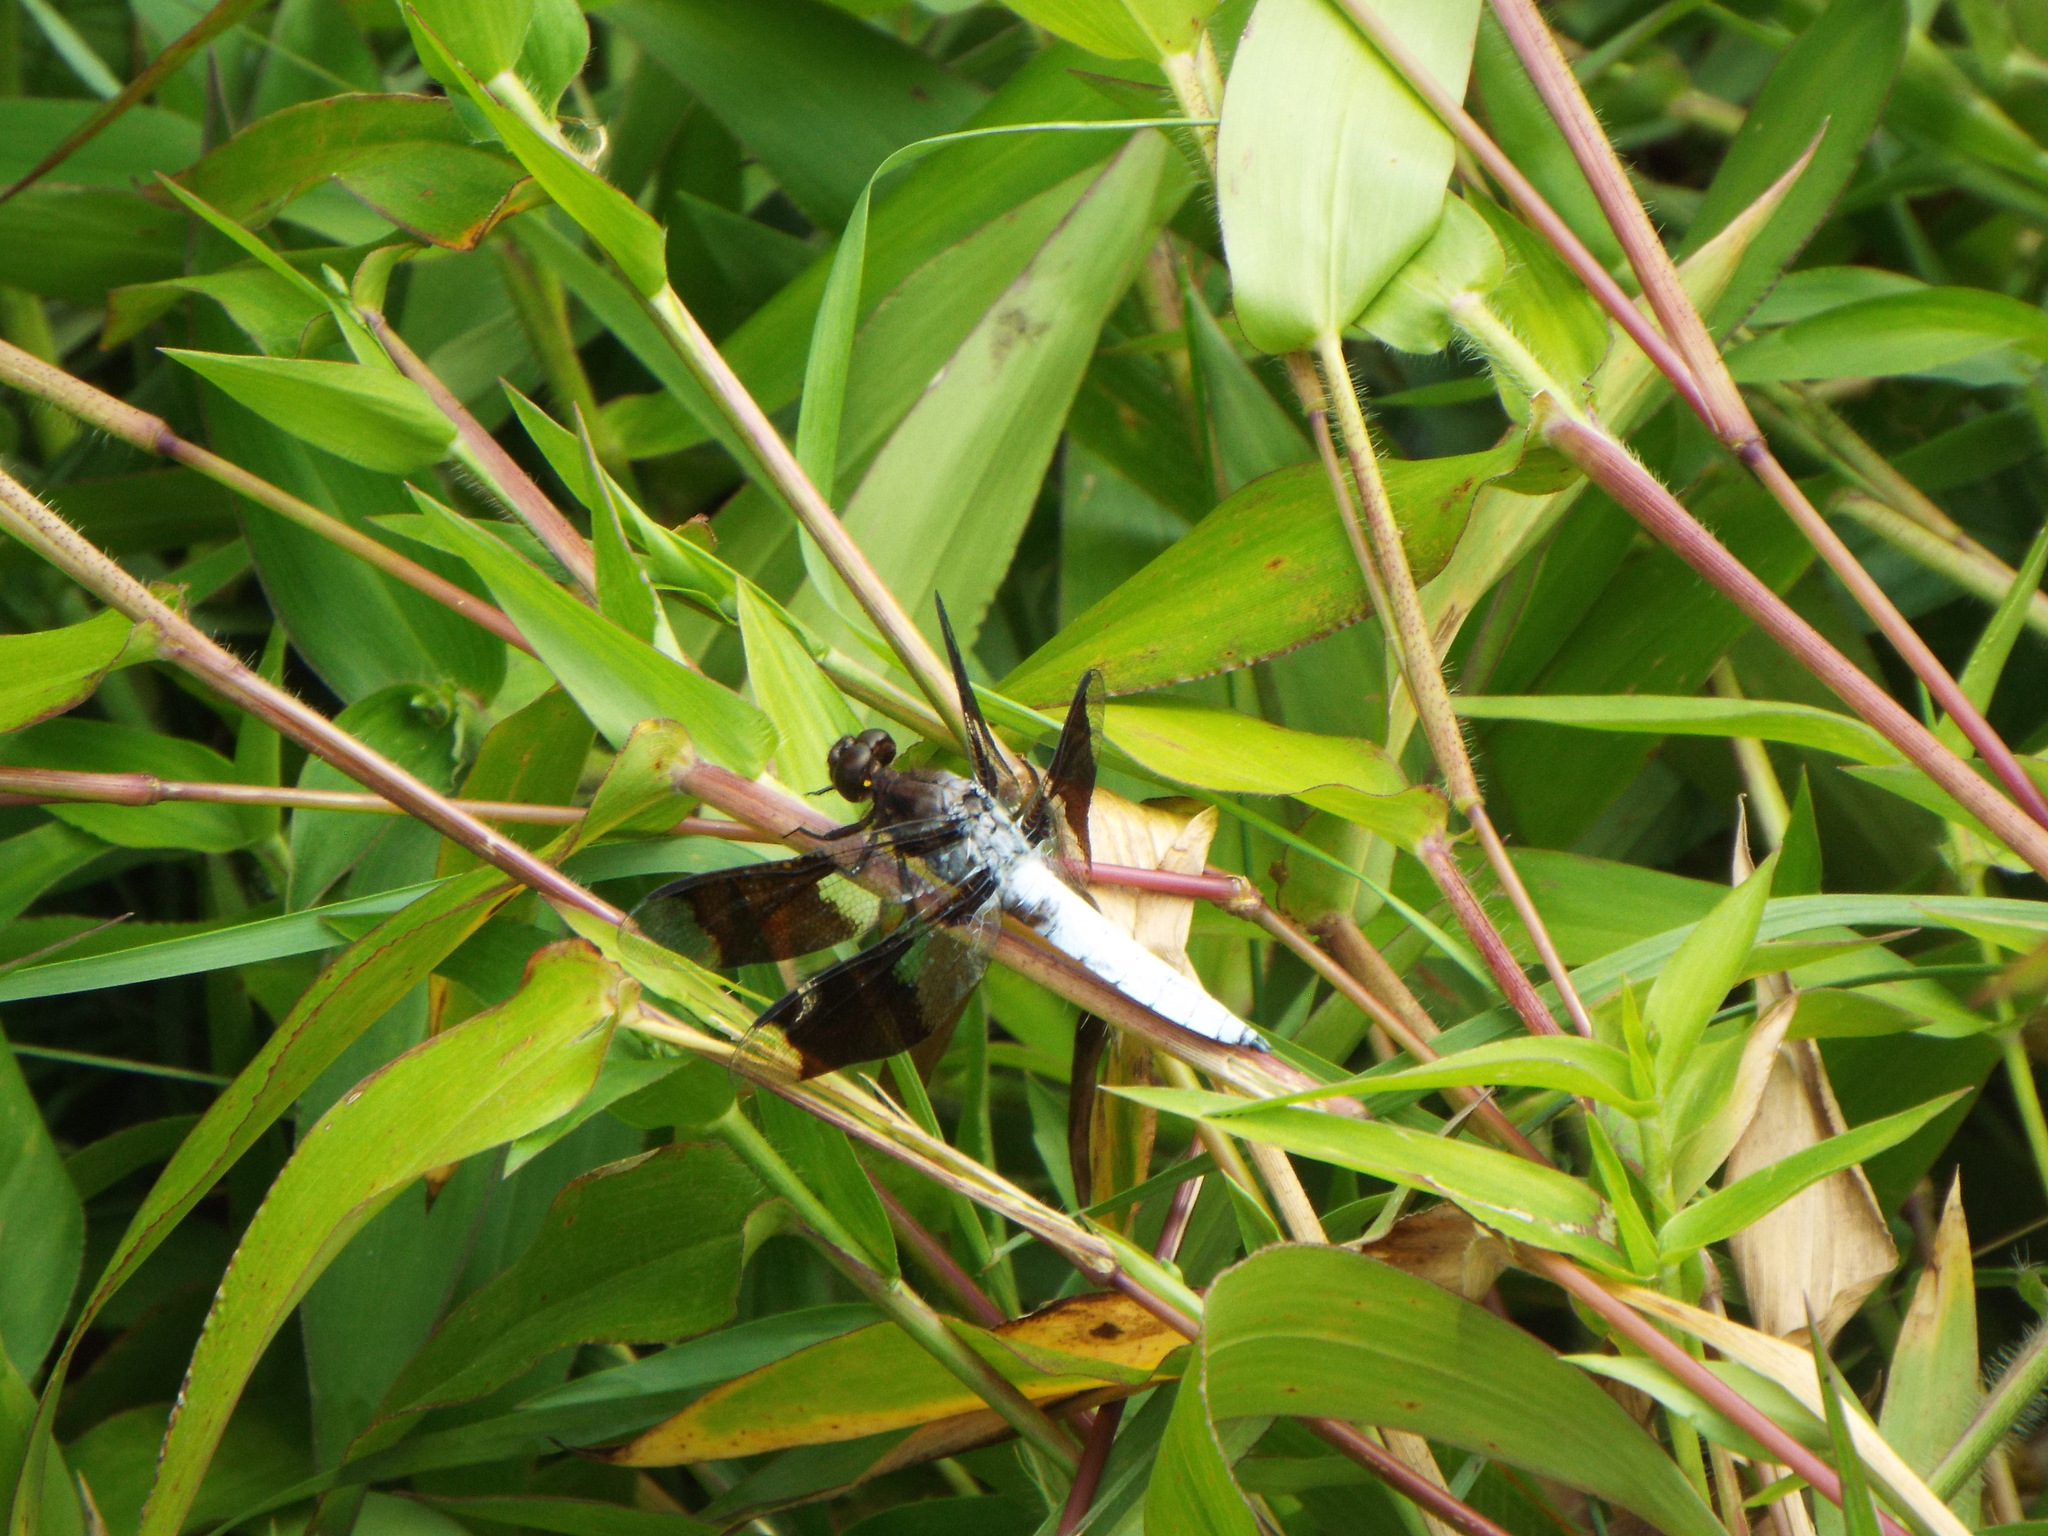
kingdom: Animalia
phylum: Arthropoda
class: Insecta
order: Odonata
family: Libellulidae
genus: Plathemis
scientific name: Plathemis lydia
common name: Common whitetail
